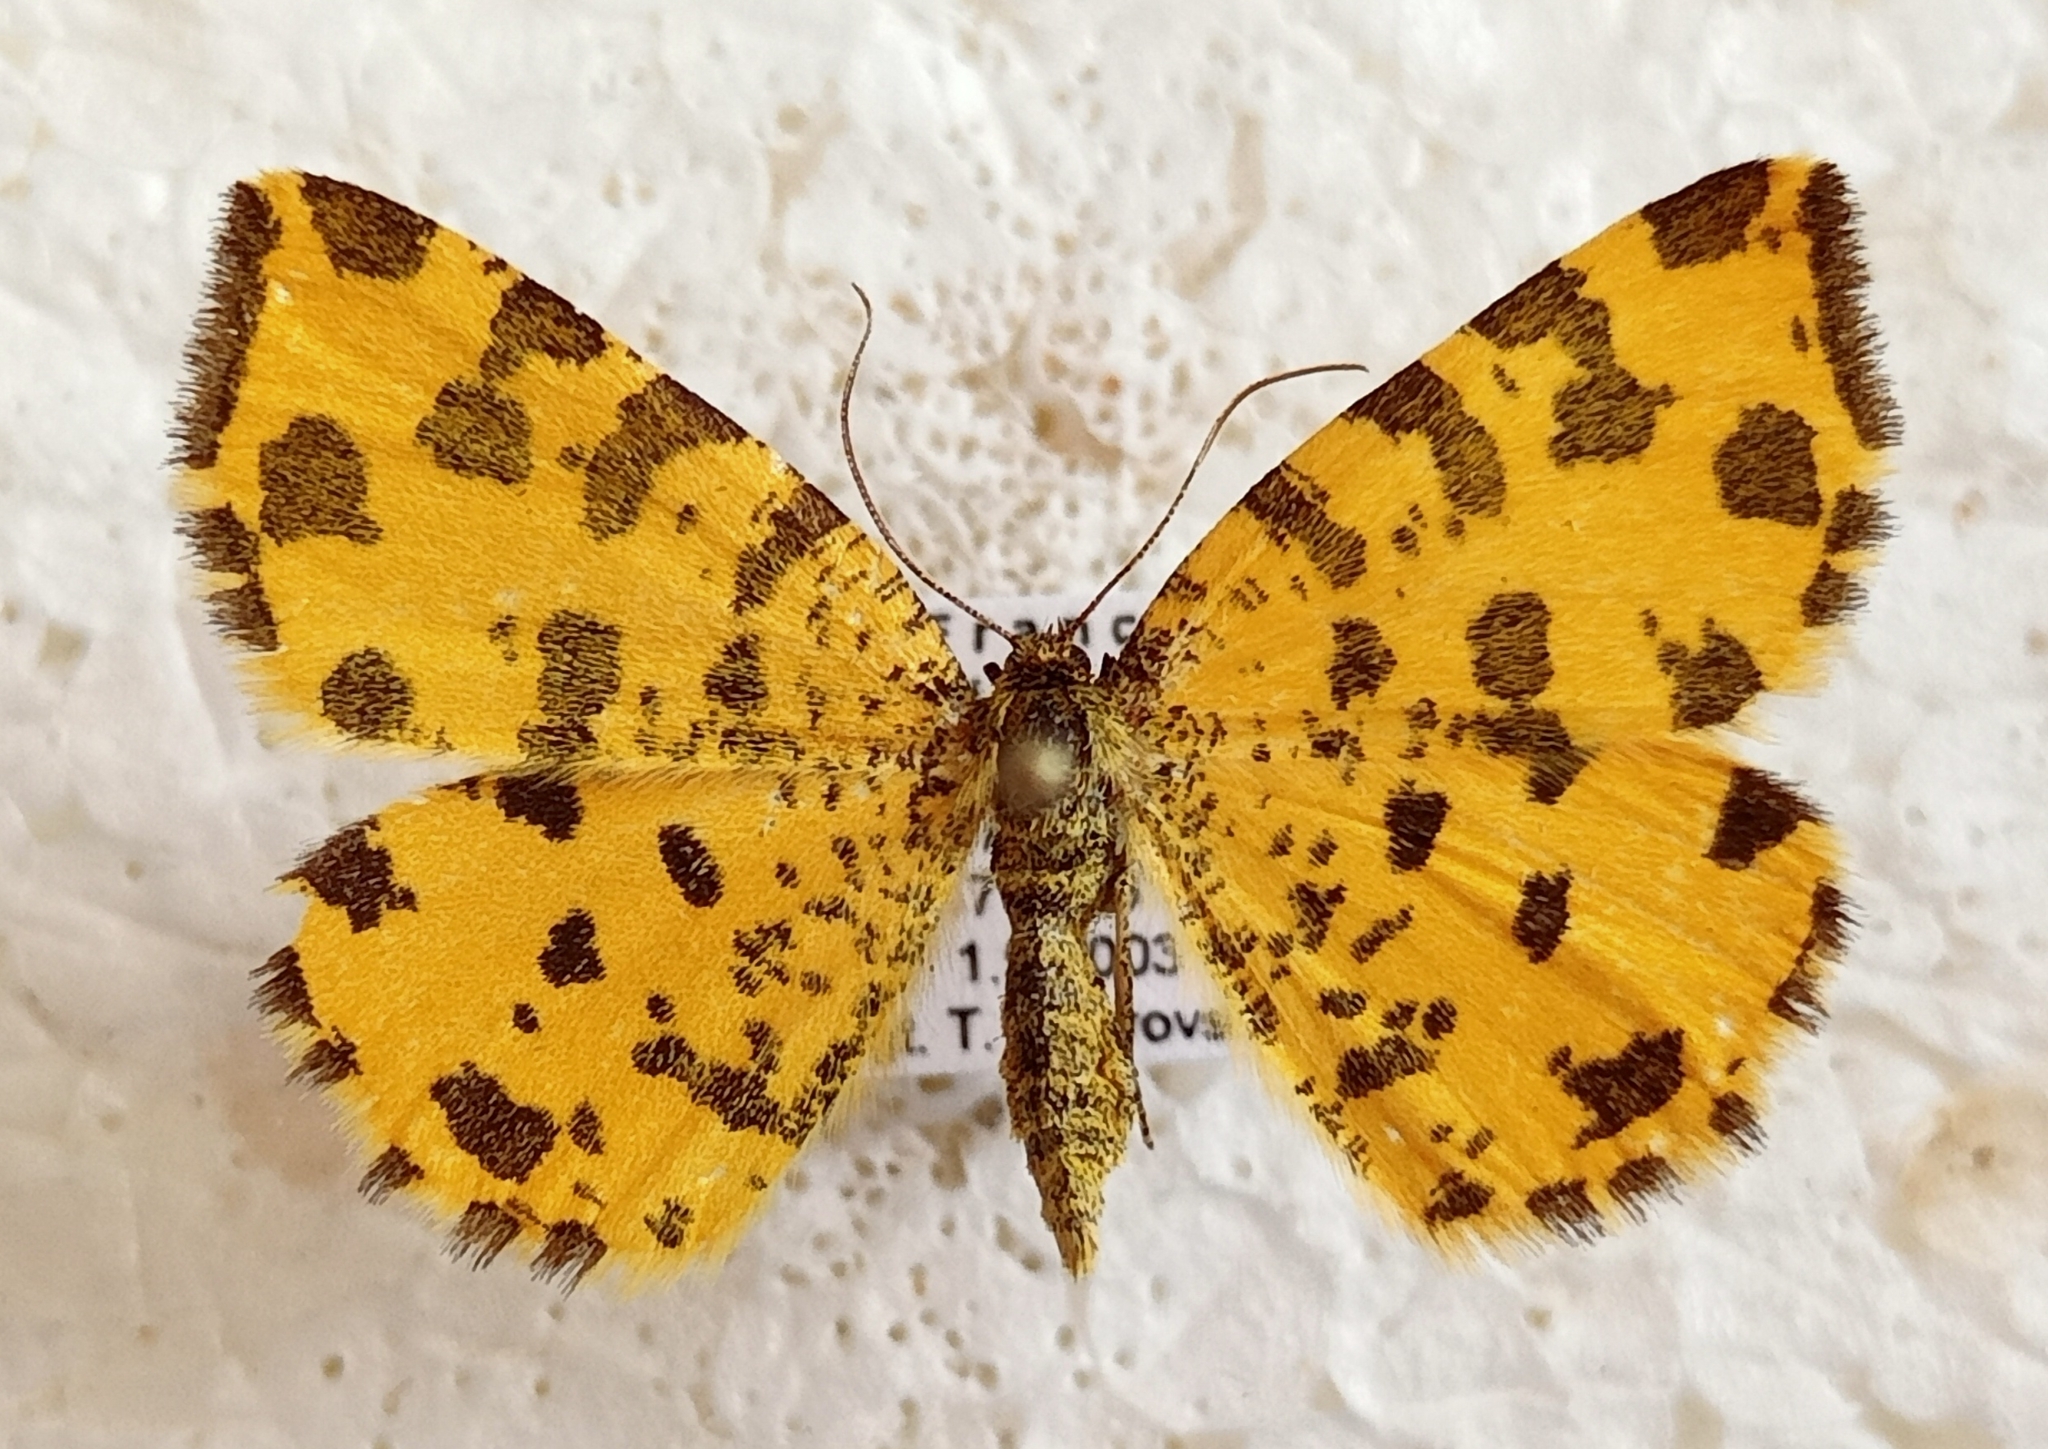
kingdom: Animalia
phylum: Arthropoda
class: Insecta
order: Lepidoptera
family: Geometridae
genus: Pseudopanthera
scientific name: Pseudopanthera macularia
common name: Speckled yellow
